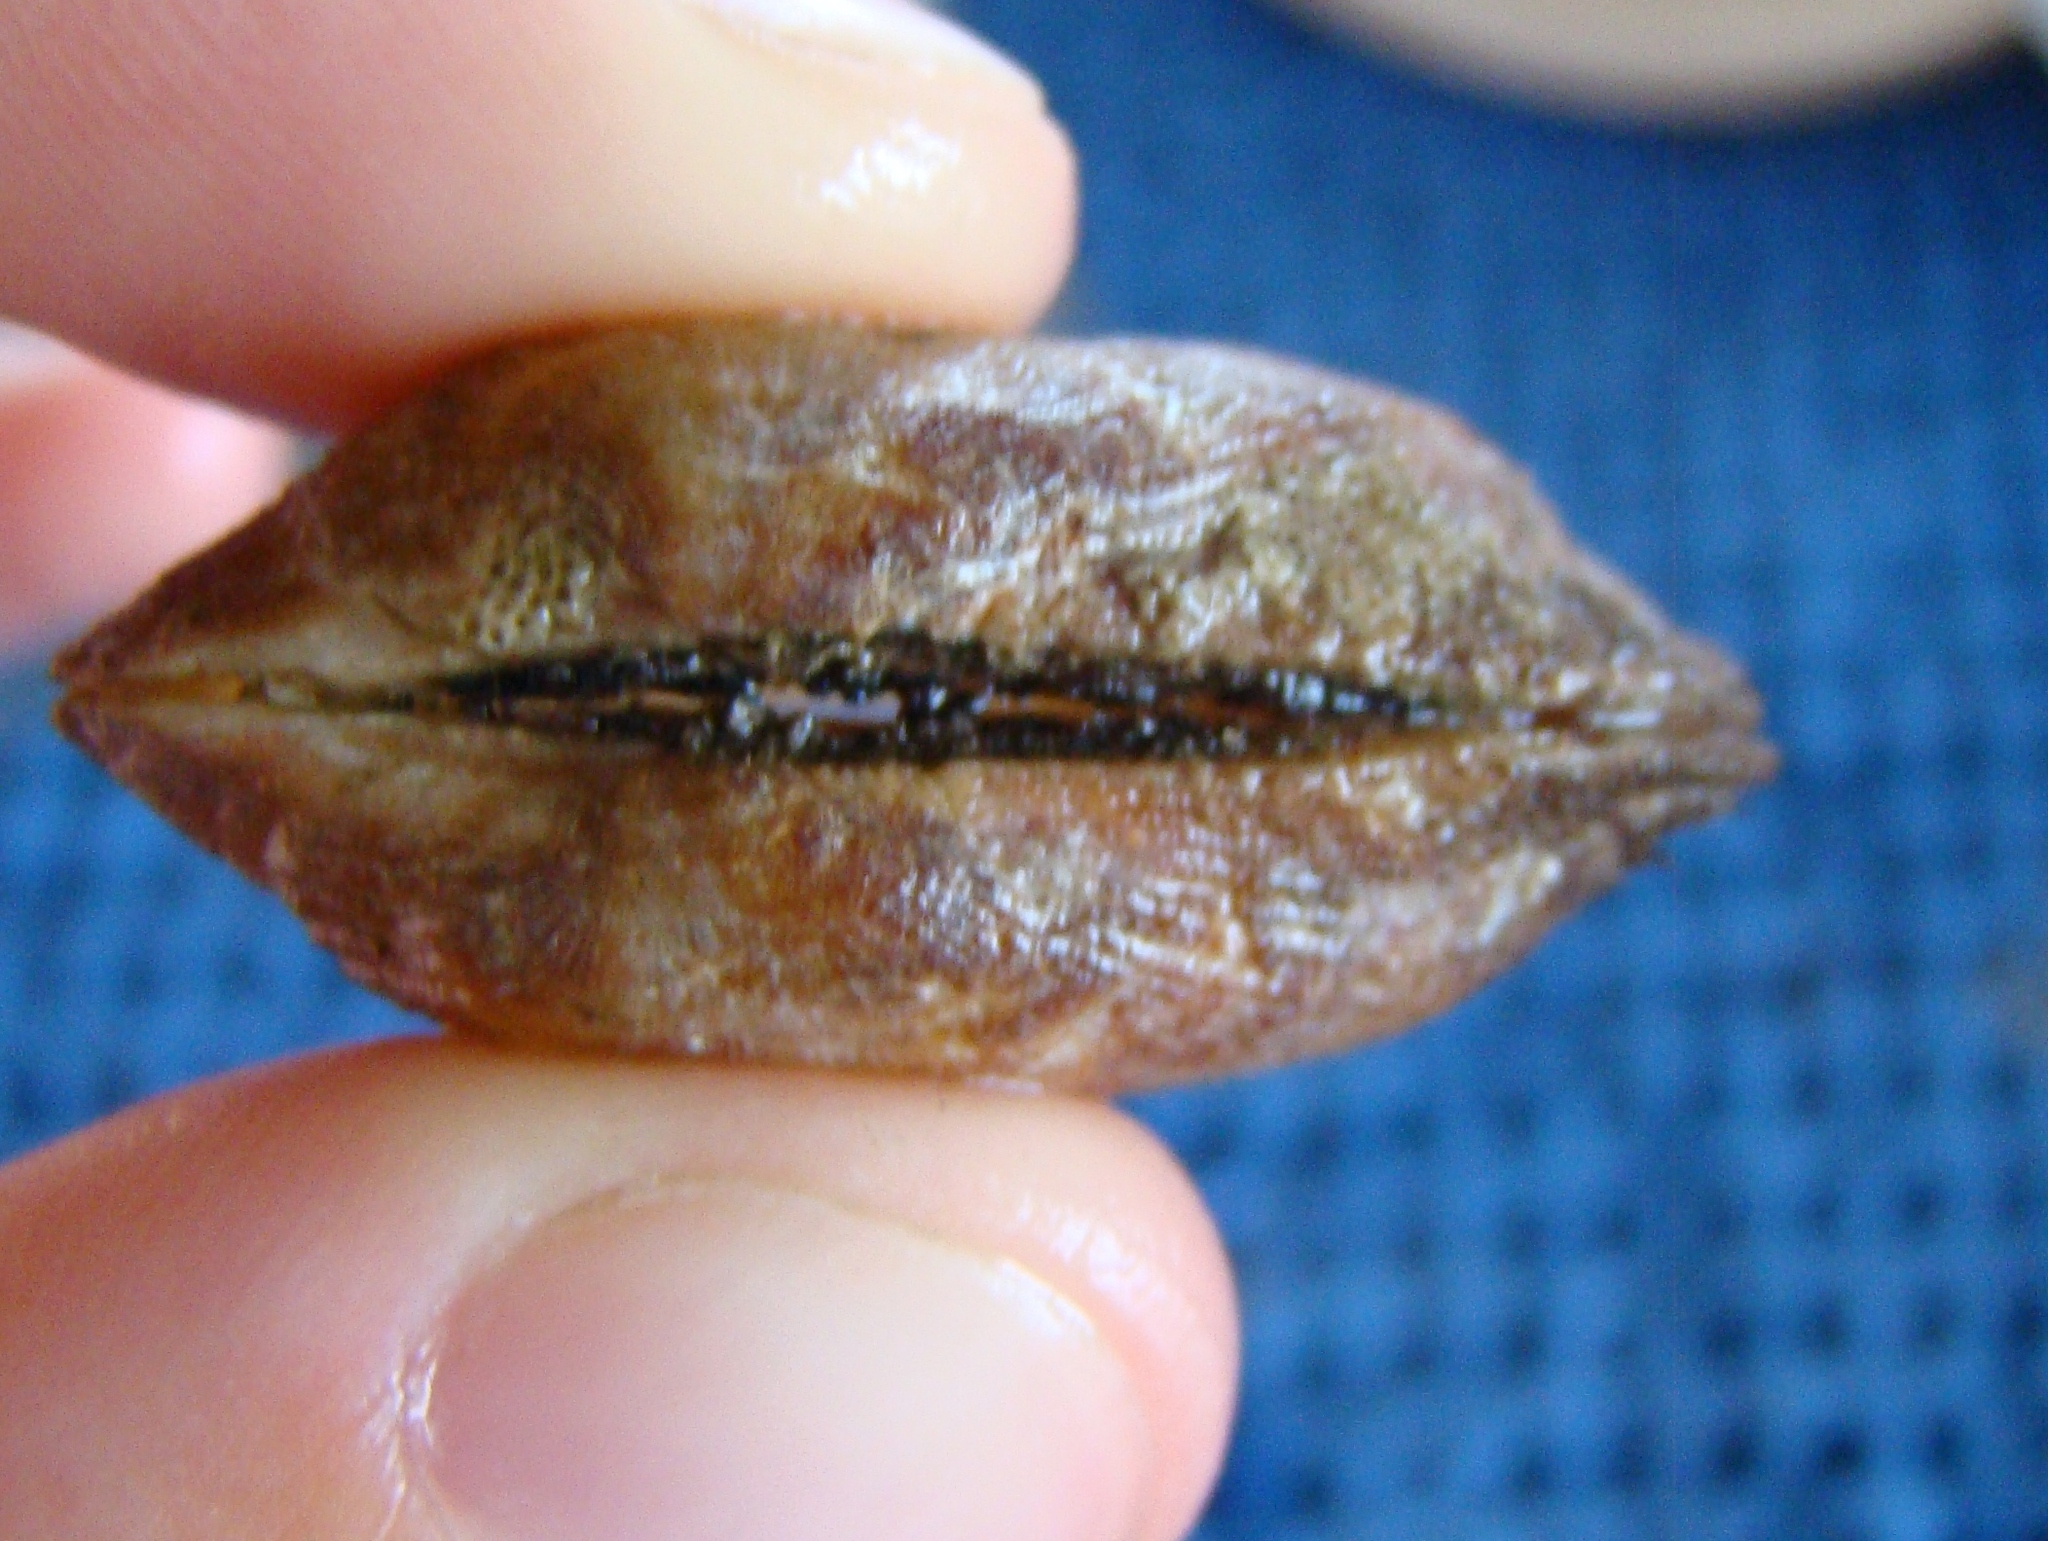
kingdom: Animalia
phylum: Mollusca
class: Bivalvia
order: Arcida
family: Arcidae
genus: Barbatia
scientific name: Barbatia novaezealandiae
